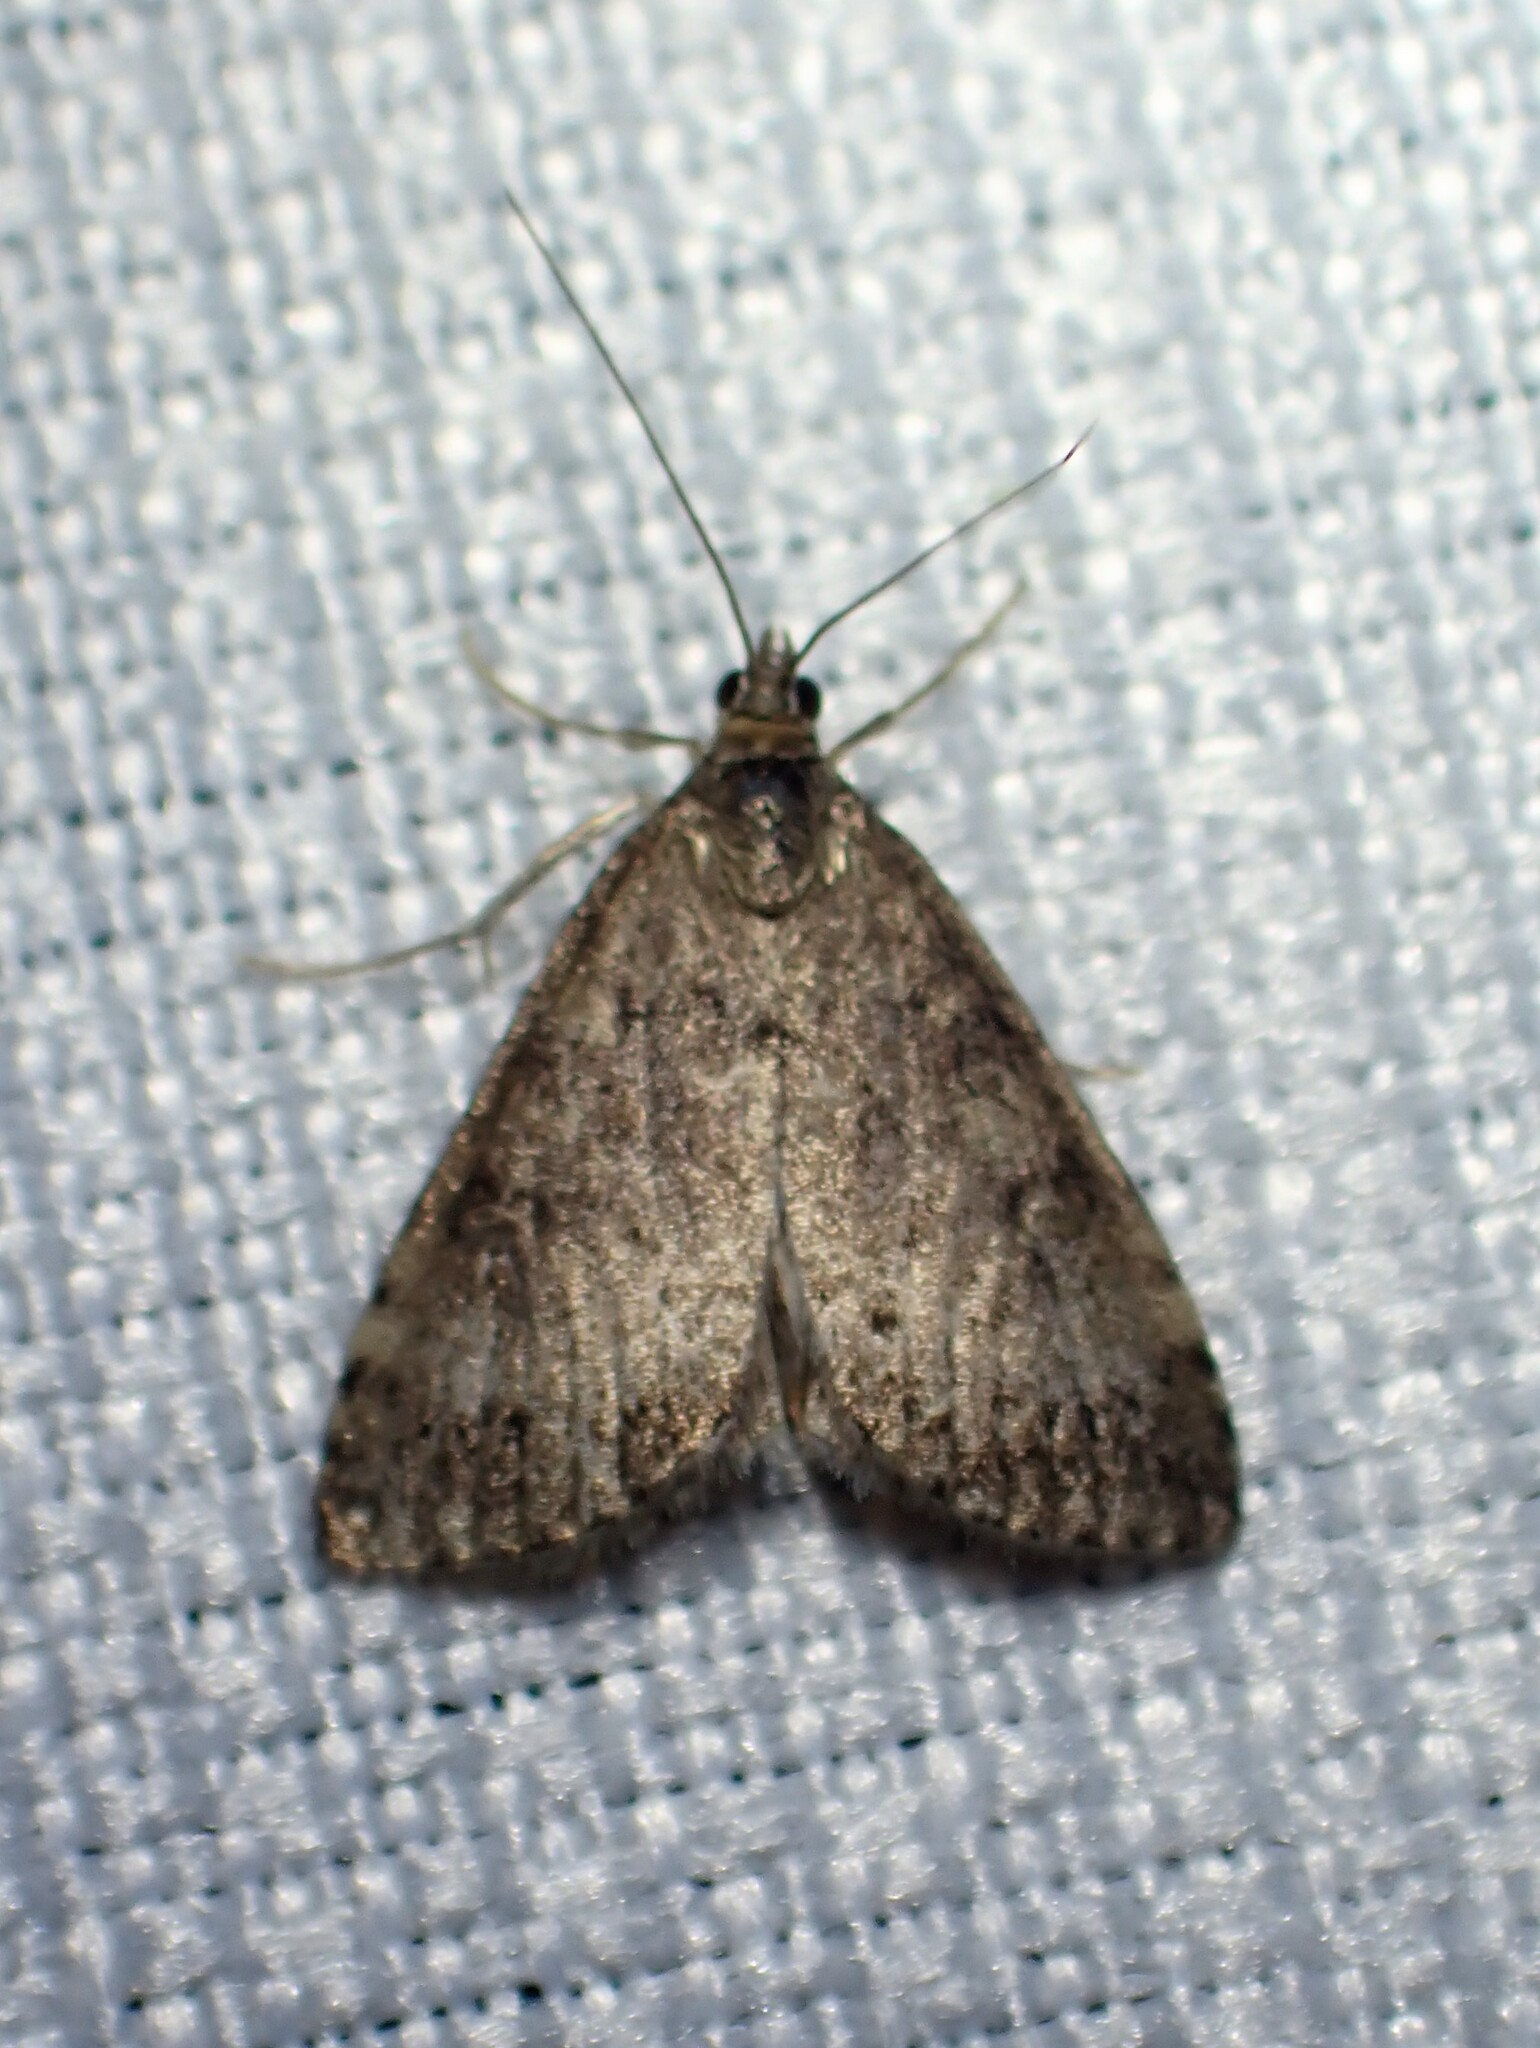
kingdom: Animalia
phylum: Arthropoda
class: Insecta
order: Lepidoptera
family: Crambidae
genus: Udea
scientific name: Udea inquinatalis
